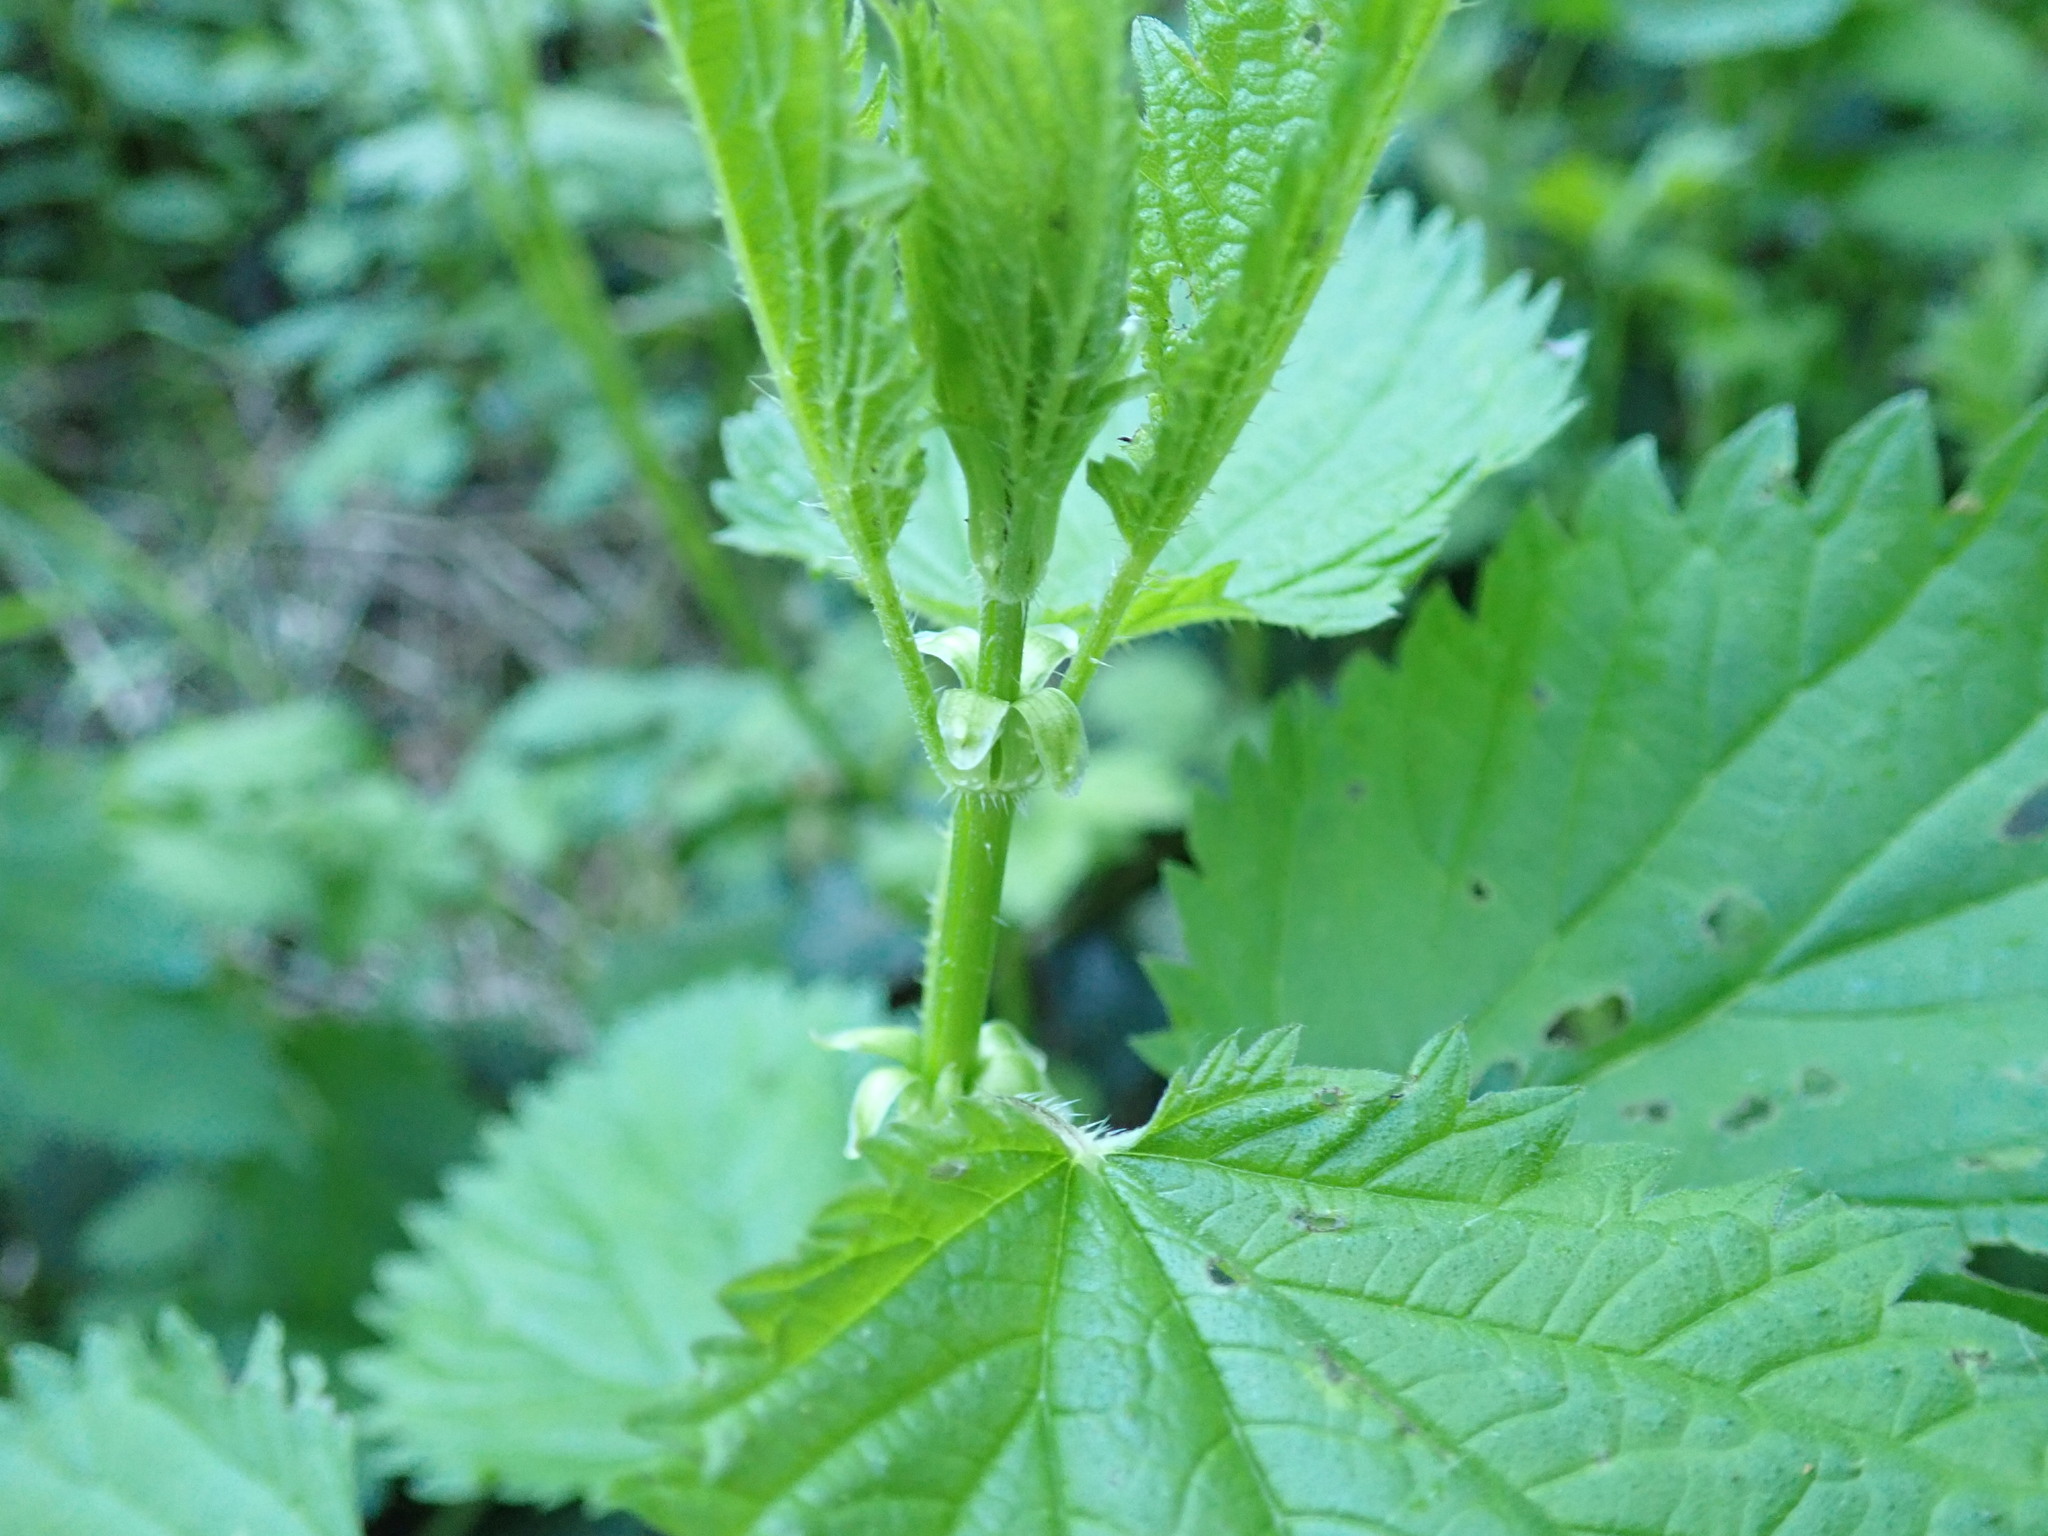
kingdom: Plantae
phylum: Tracheophyta
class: Magnoliopsida
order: Rosales
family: Urticaceae
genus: Urtica
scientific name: Urtica dioica
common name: Common nettle
